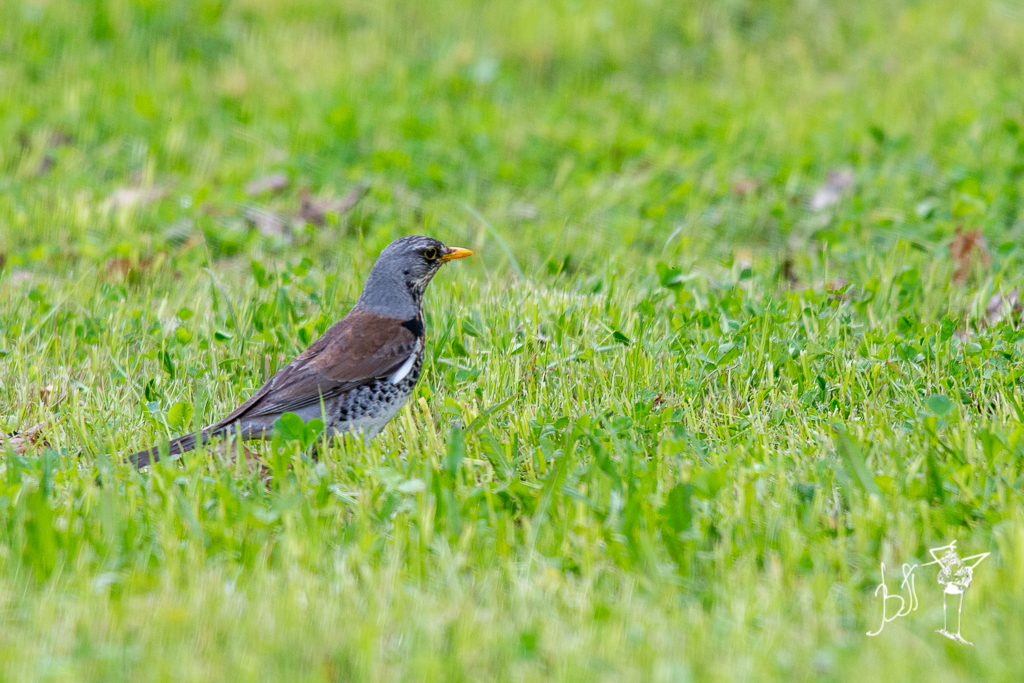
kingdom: Animalia
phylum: Chordata
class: Aves
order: Passeriformes
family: Turdidae
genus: Turdus
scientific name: Turdus pilaris
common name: Fieldfare
